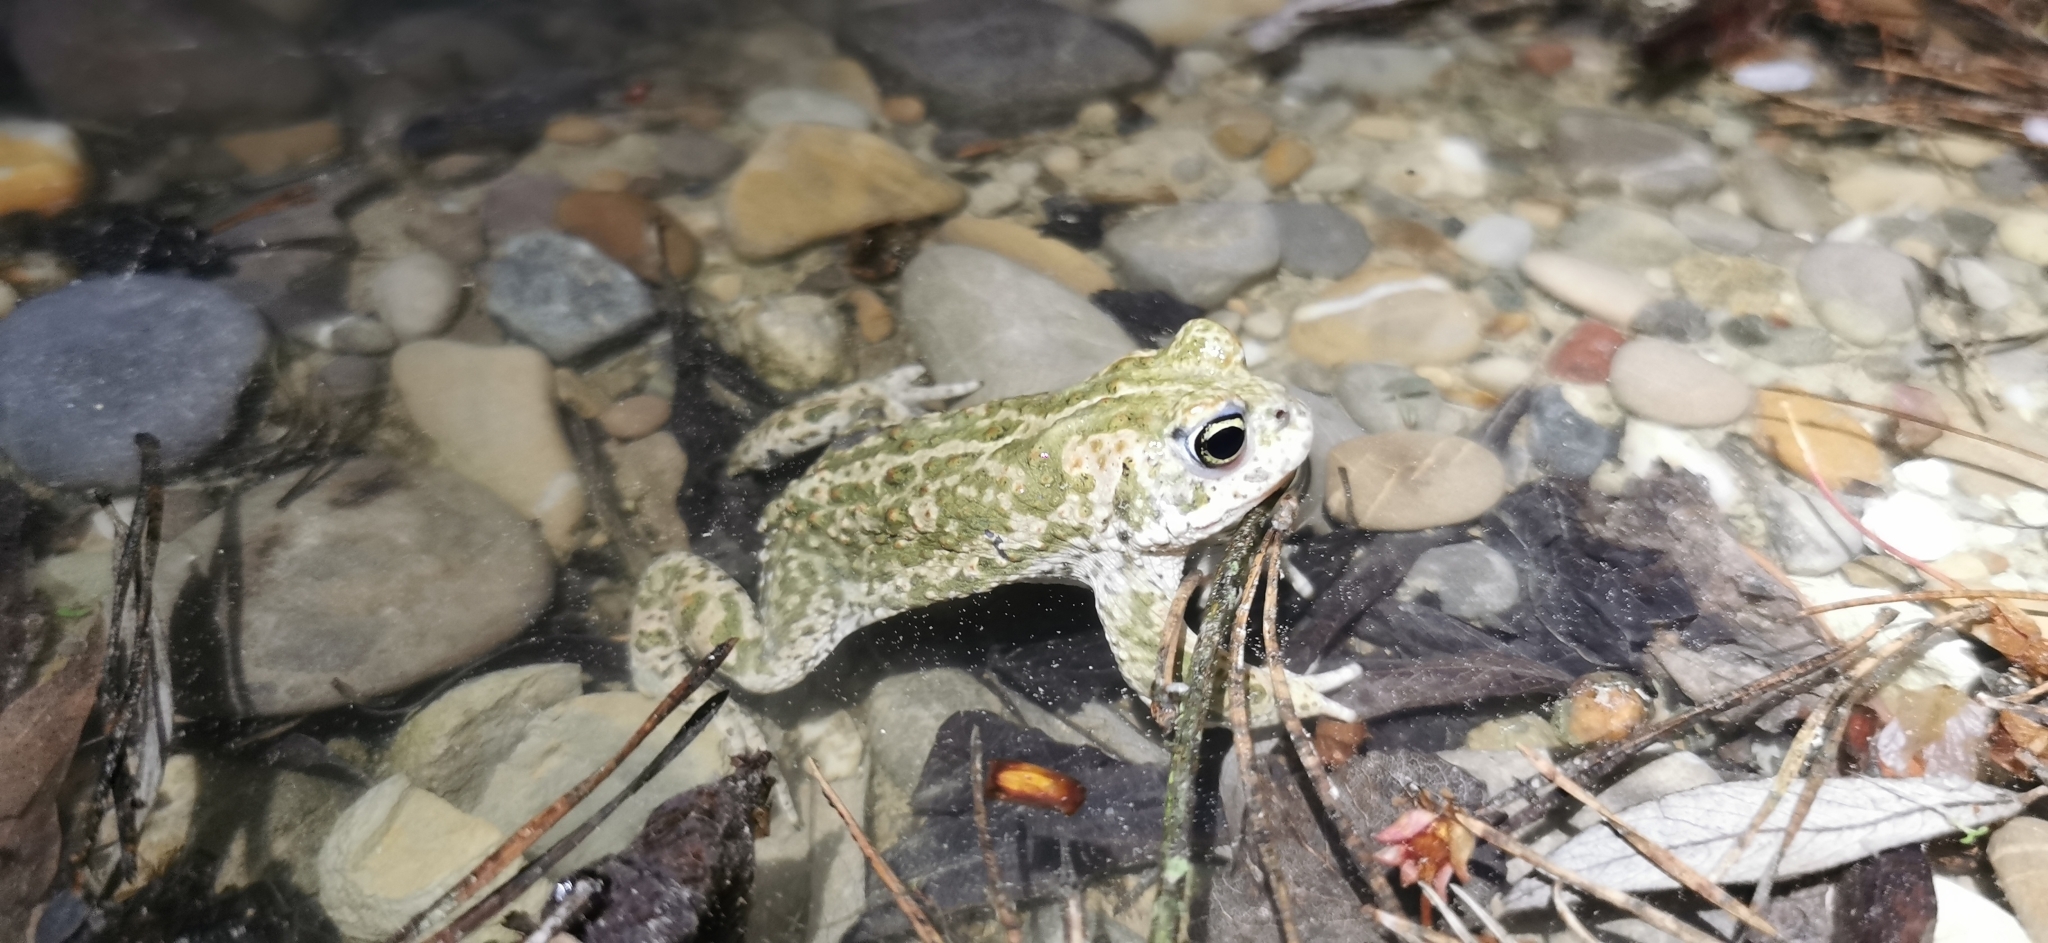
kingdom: Animalia
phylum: Chordata
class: Amphibia
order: Anura
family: Bufonidae
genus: Epidalea
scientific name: Epidalea calamita
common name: Natterjack toad
